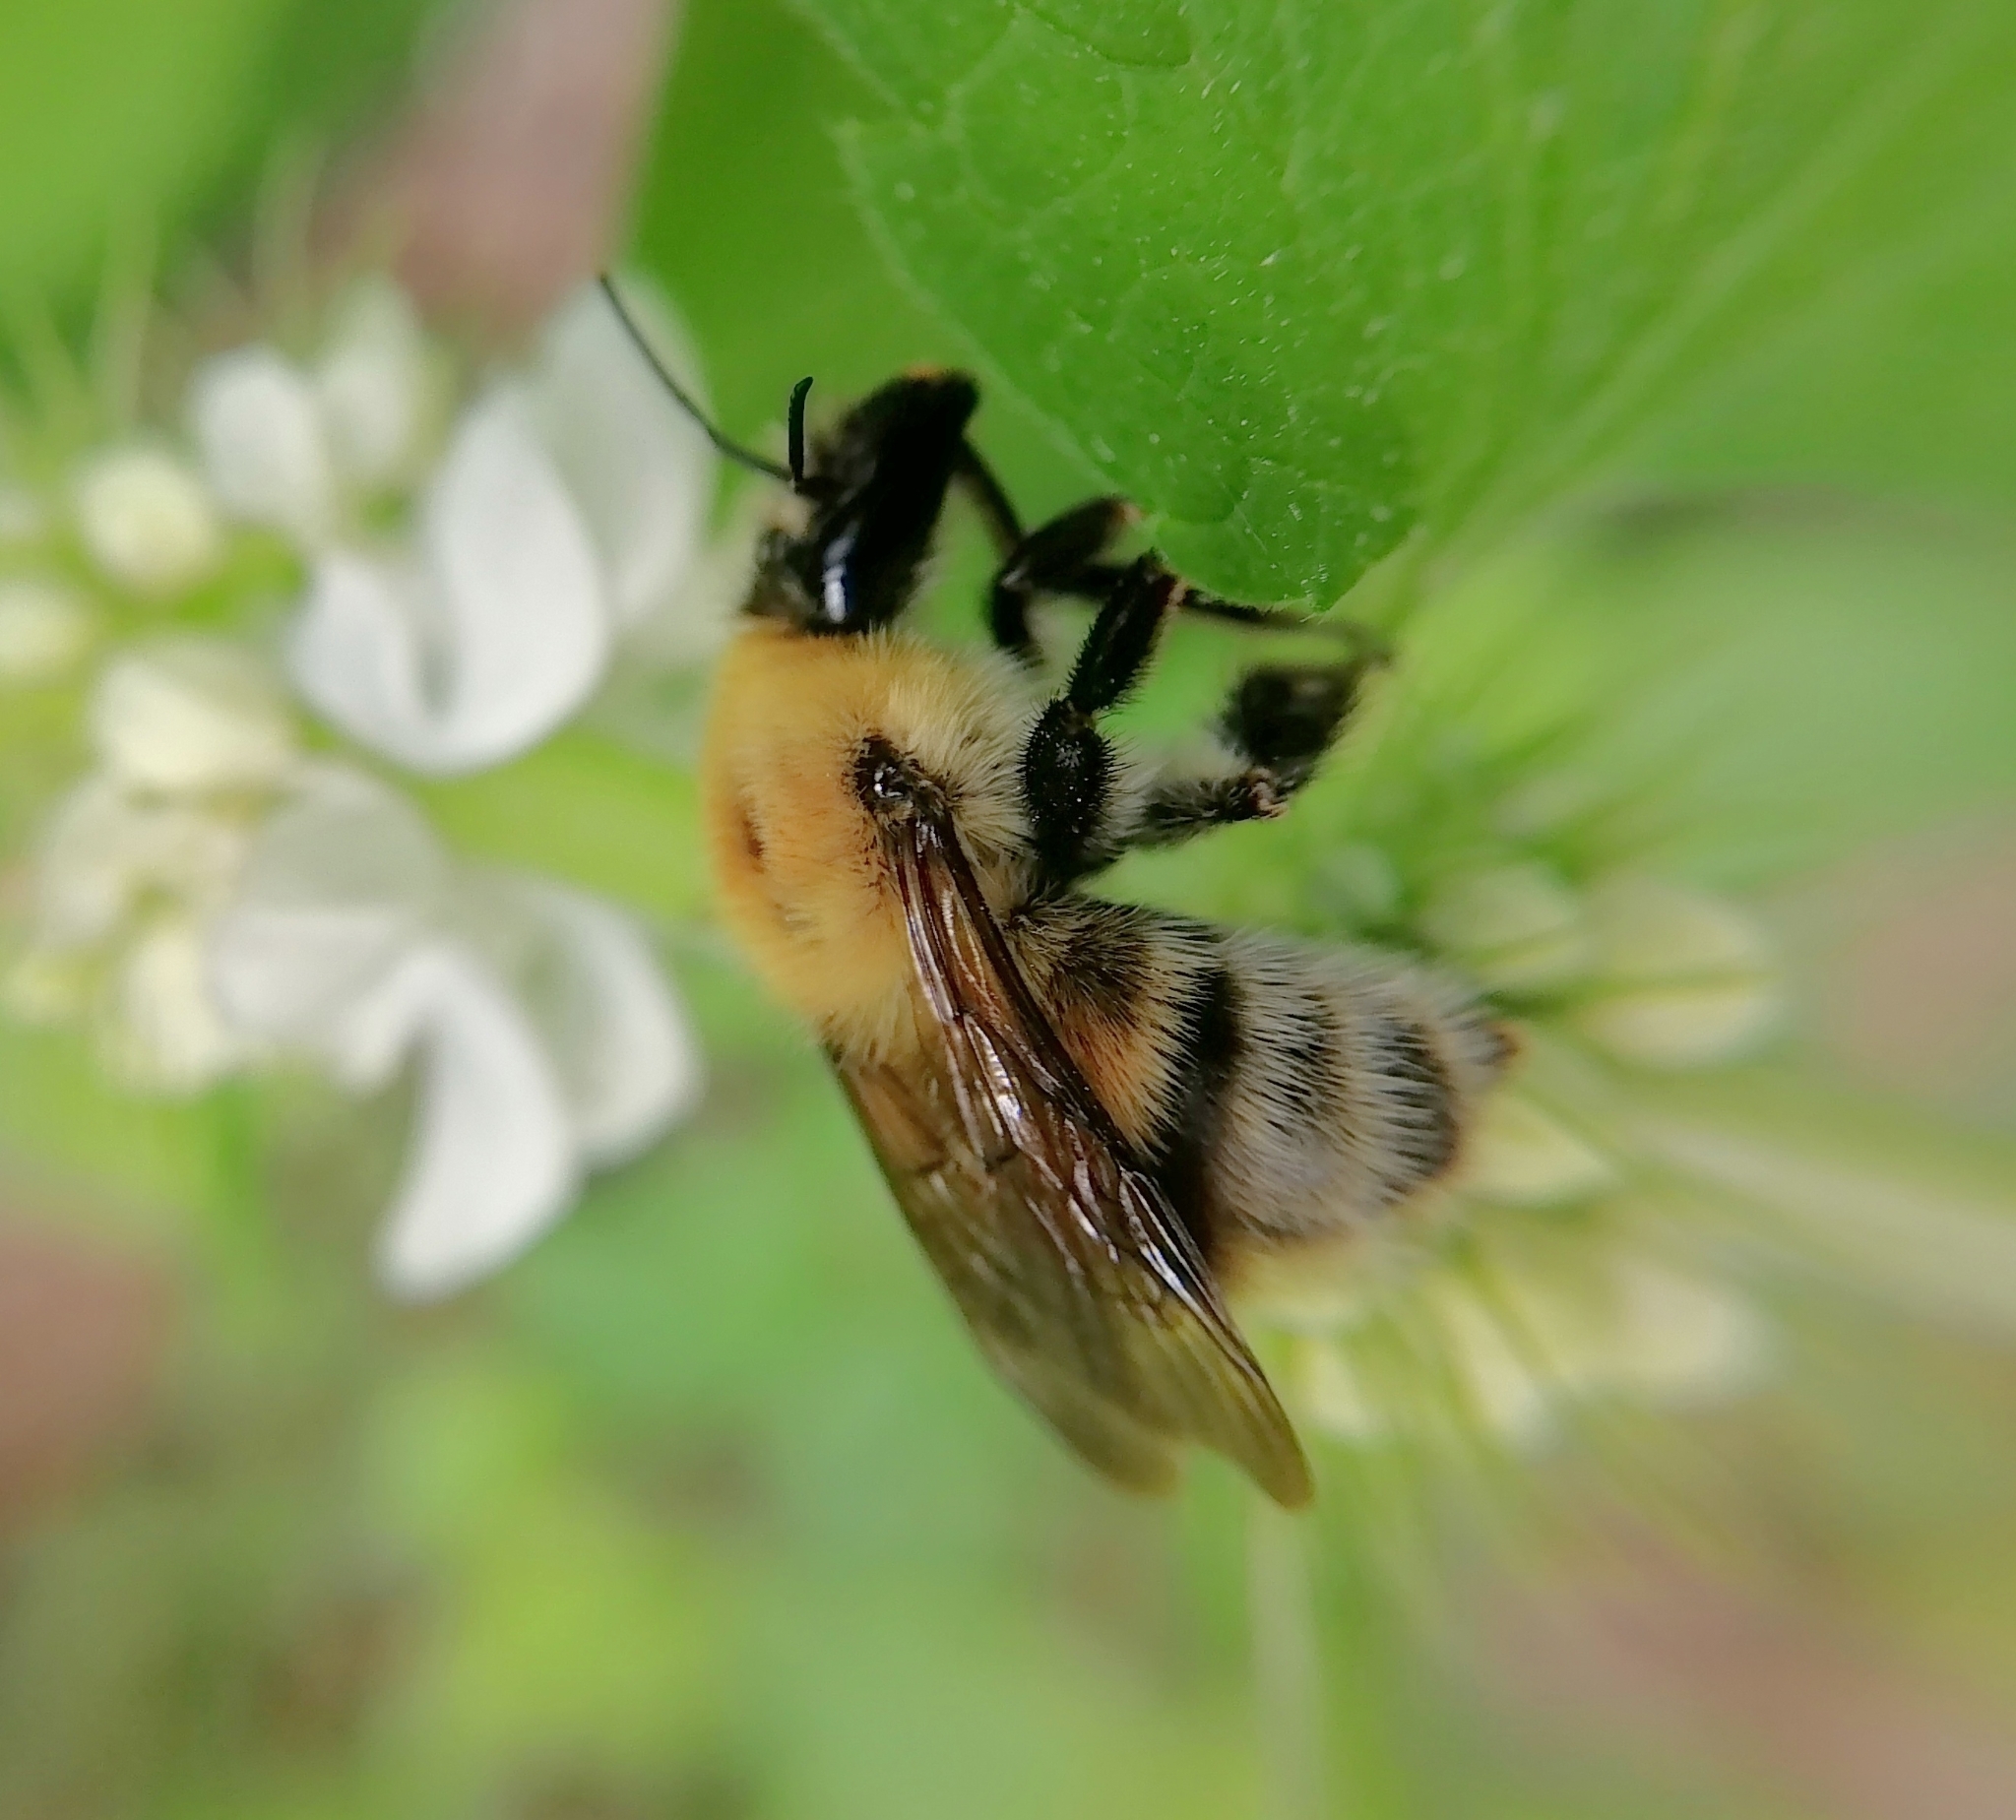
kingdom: Animalia
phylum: Arthropoda
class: Insecta
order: Hymenoptera
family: Apidae
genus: Bombus
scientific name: Bombus consobrinus
